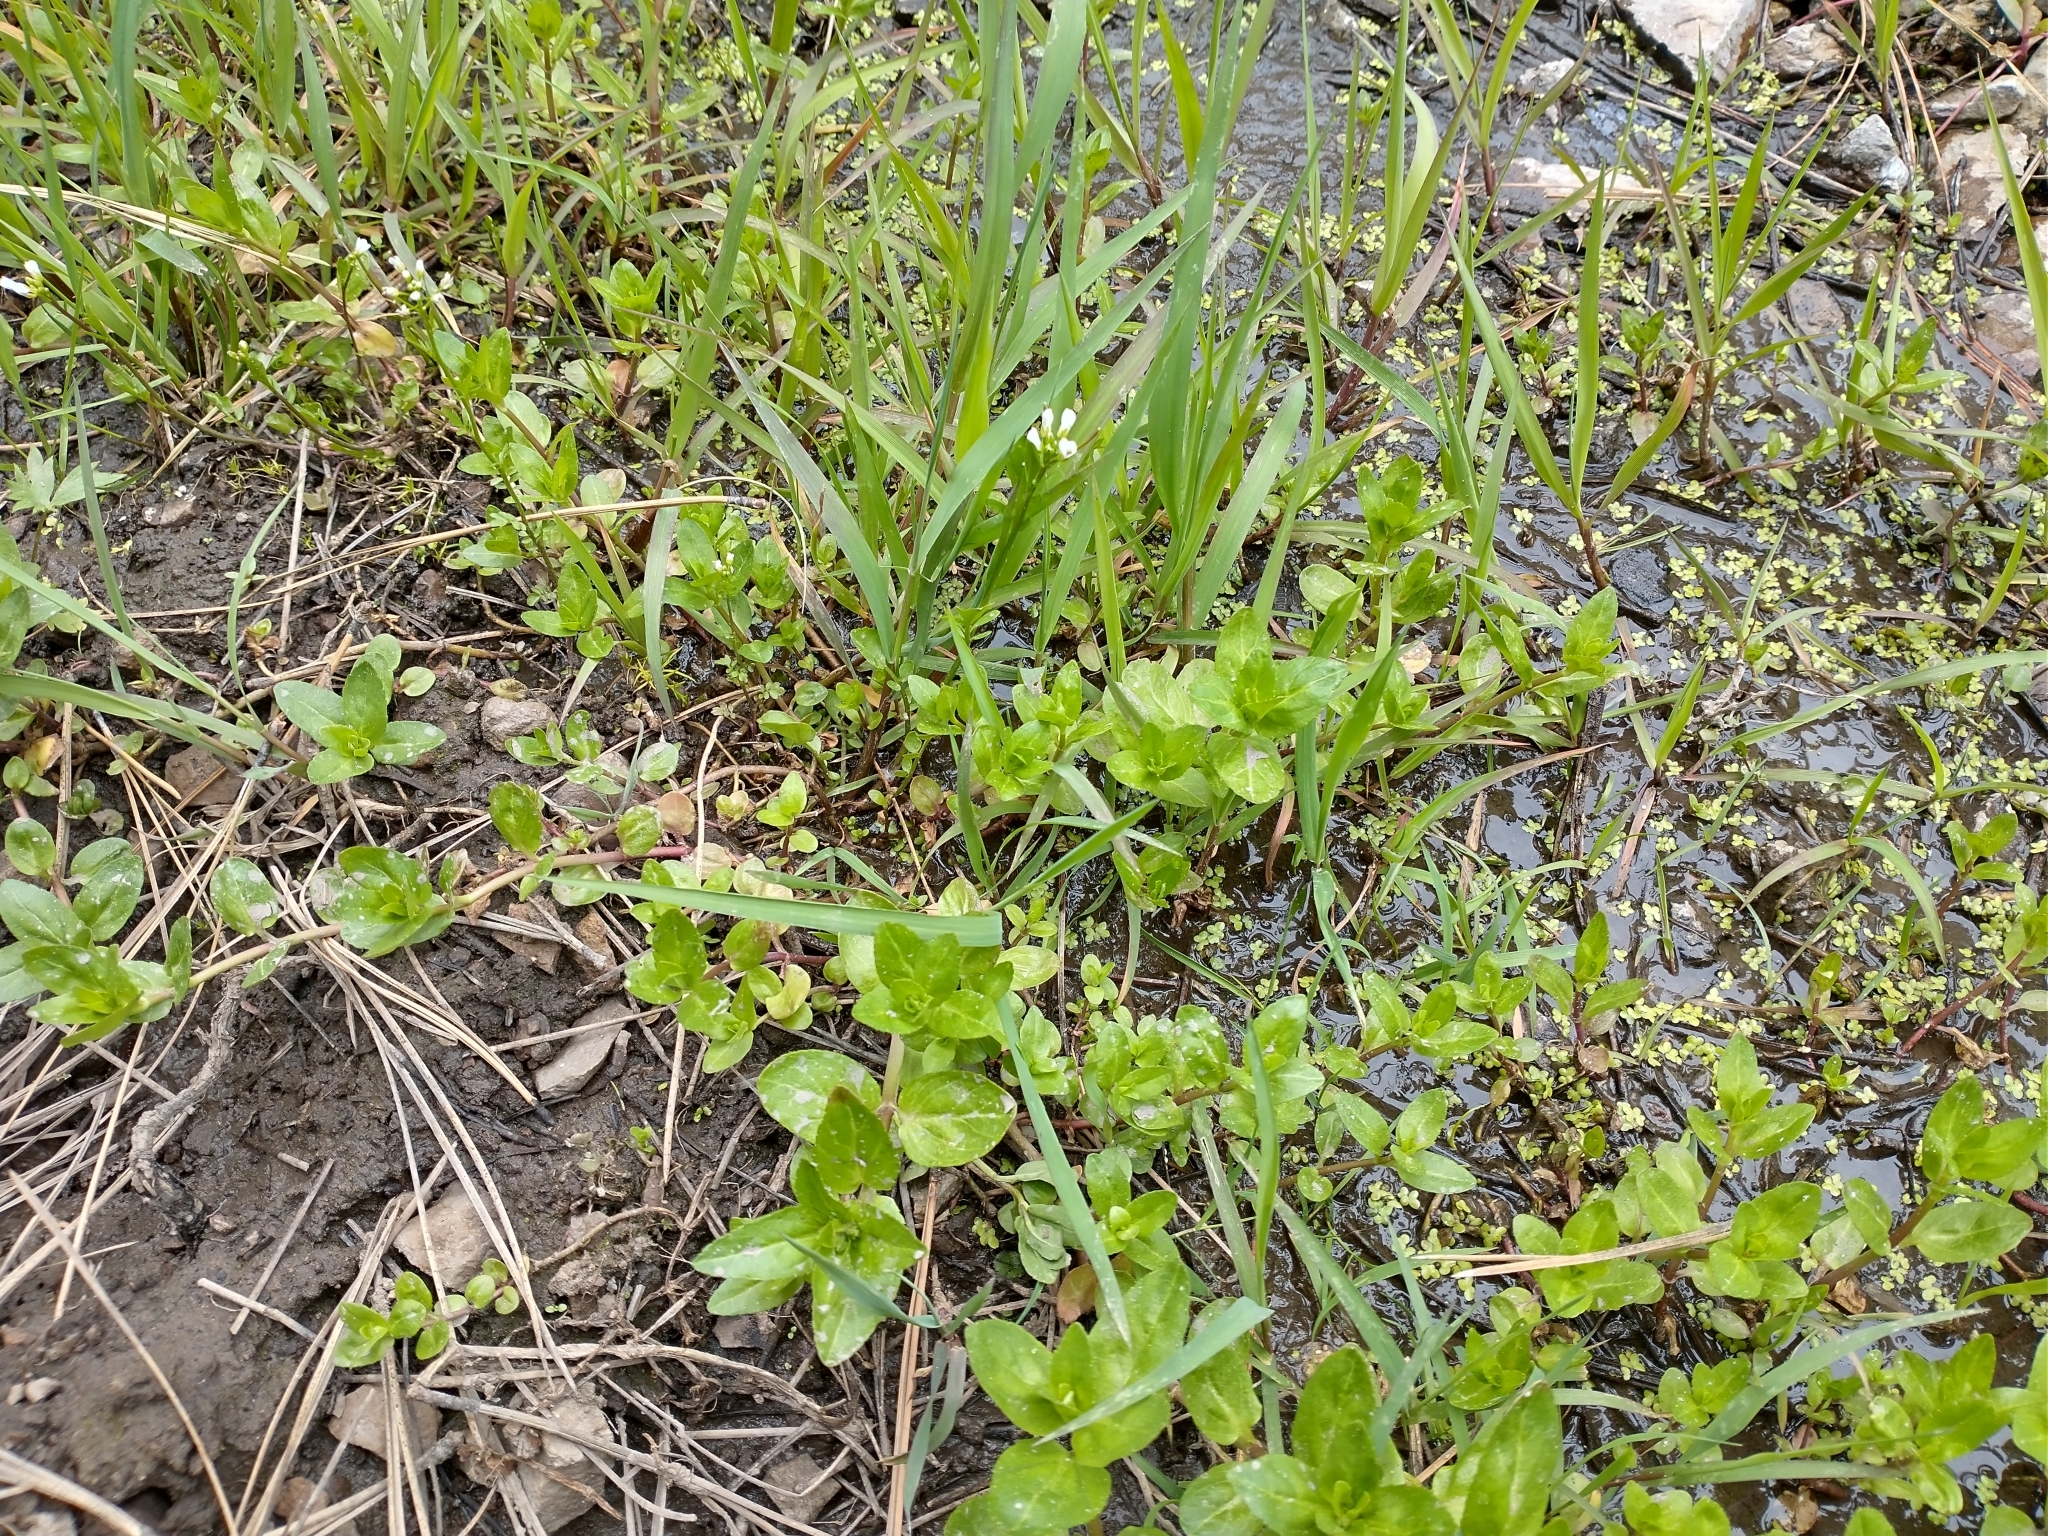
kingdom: Plantae
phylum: Tracheophyta
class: Magnoliopsida
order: Brassicales
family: Brassicaceae
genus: Nasturtium
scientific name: Nasturtium officinale
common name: Watercress
